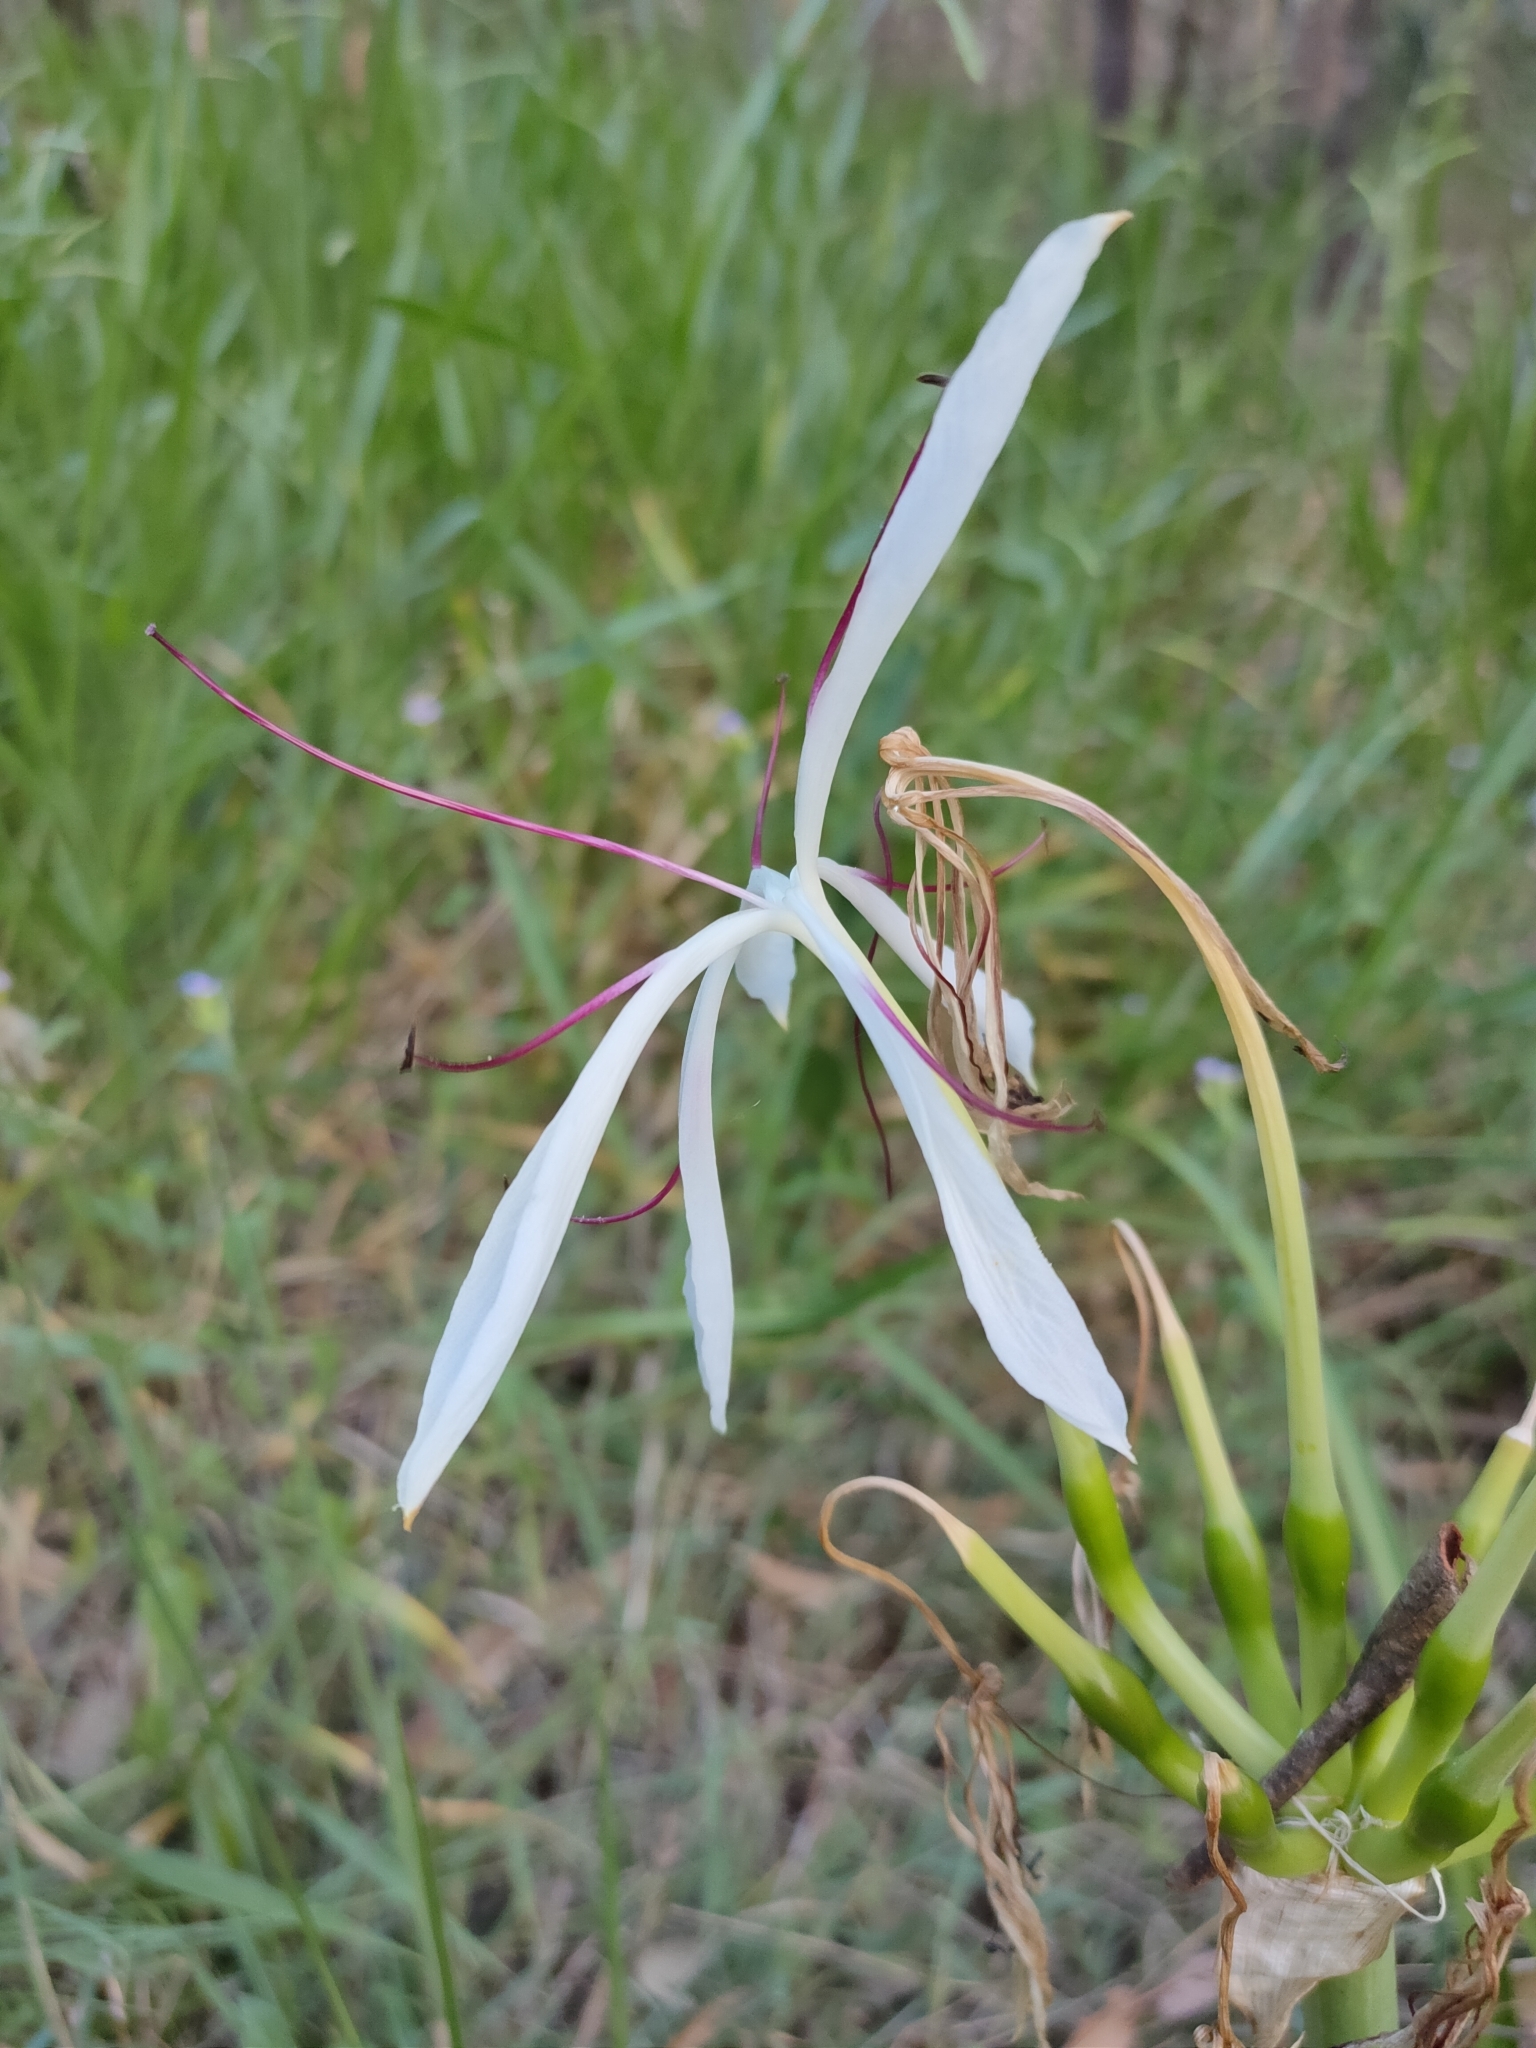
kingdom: Plantae
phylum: Tracheophyta
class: Liliopsida
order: Asparagales
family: Amaryllidaceae
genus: Crinum
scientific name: Crinum arenarium
